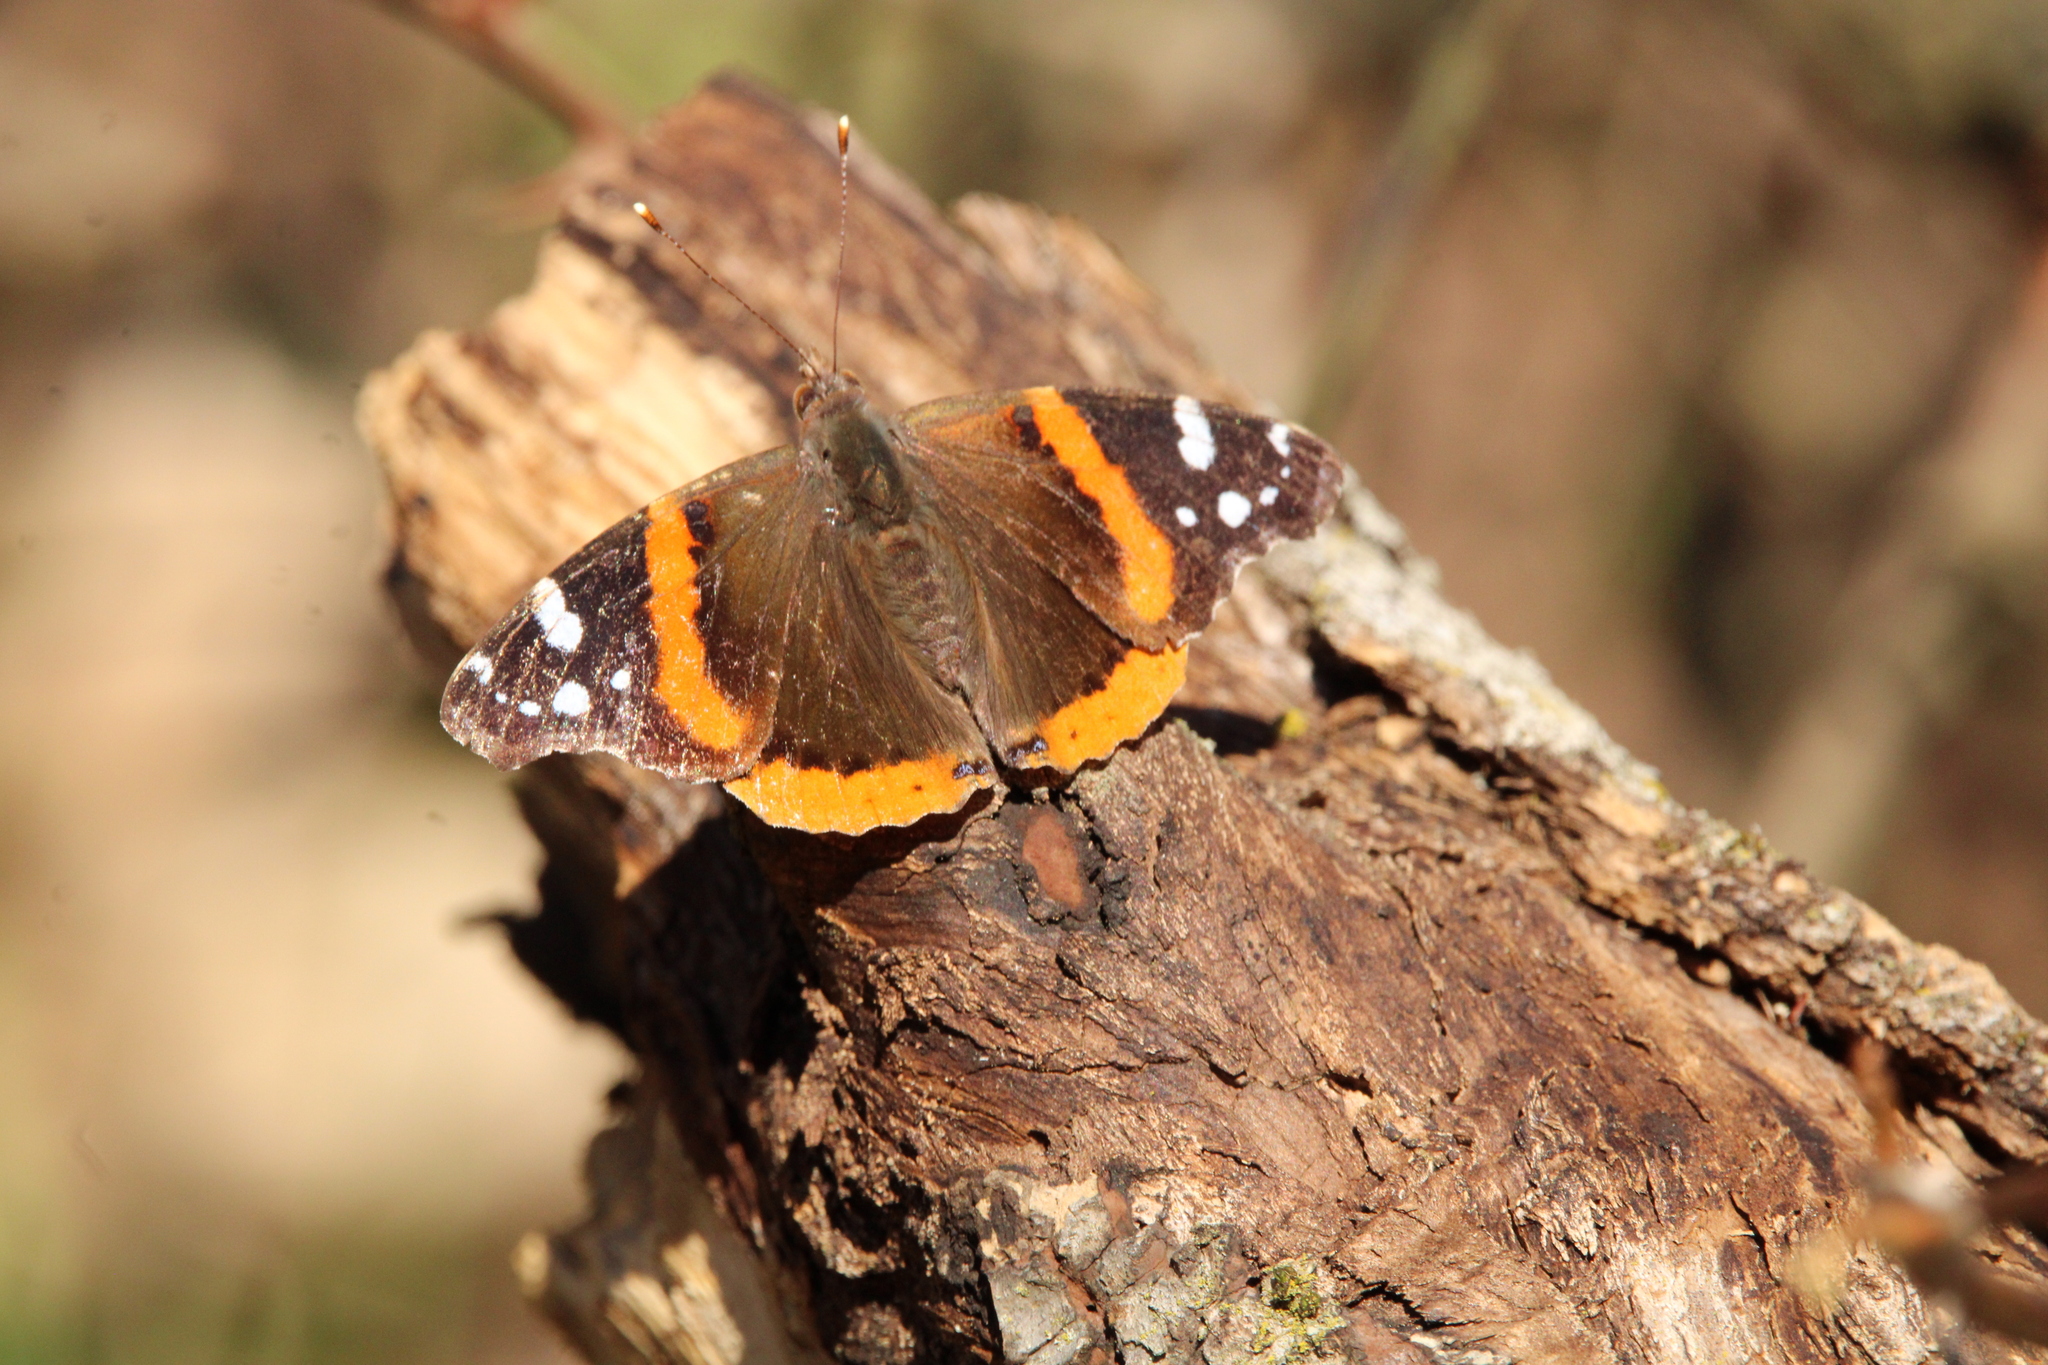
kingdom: Animalia
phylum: Arthropoda
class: Insecta
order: Lepidoptera
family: Nymphalidae
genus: Vanessa
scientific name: Vanessa atalanta
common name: Red admiral
